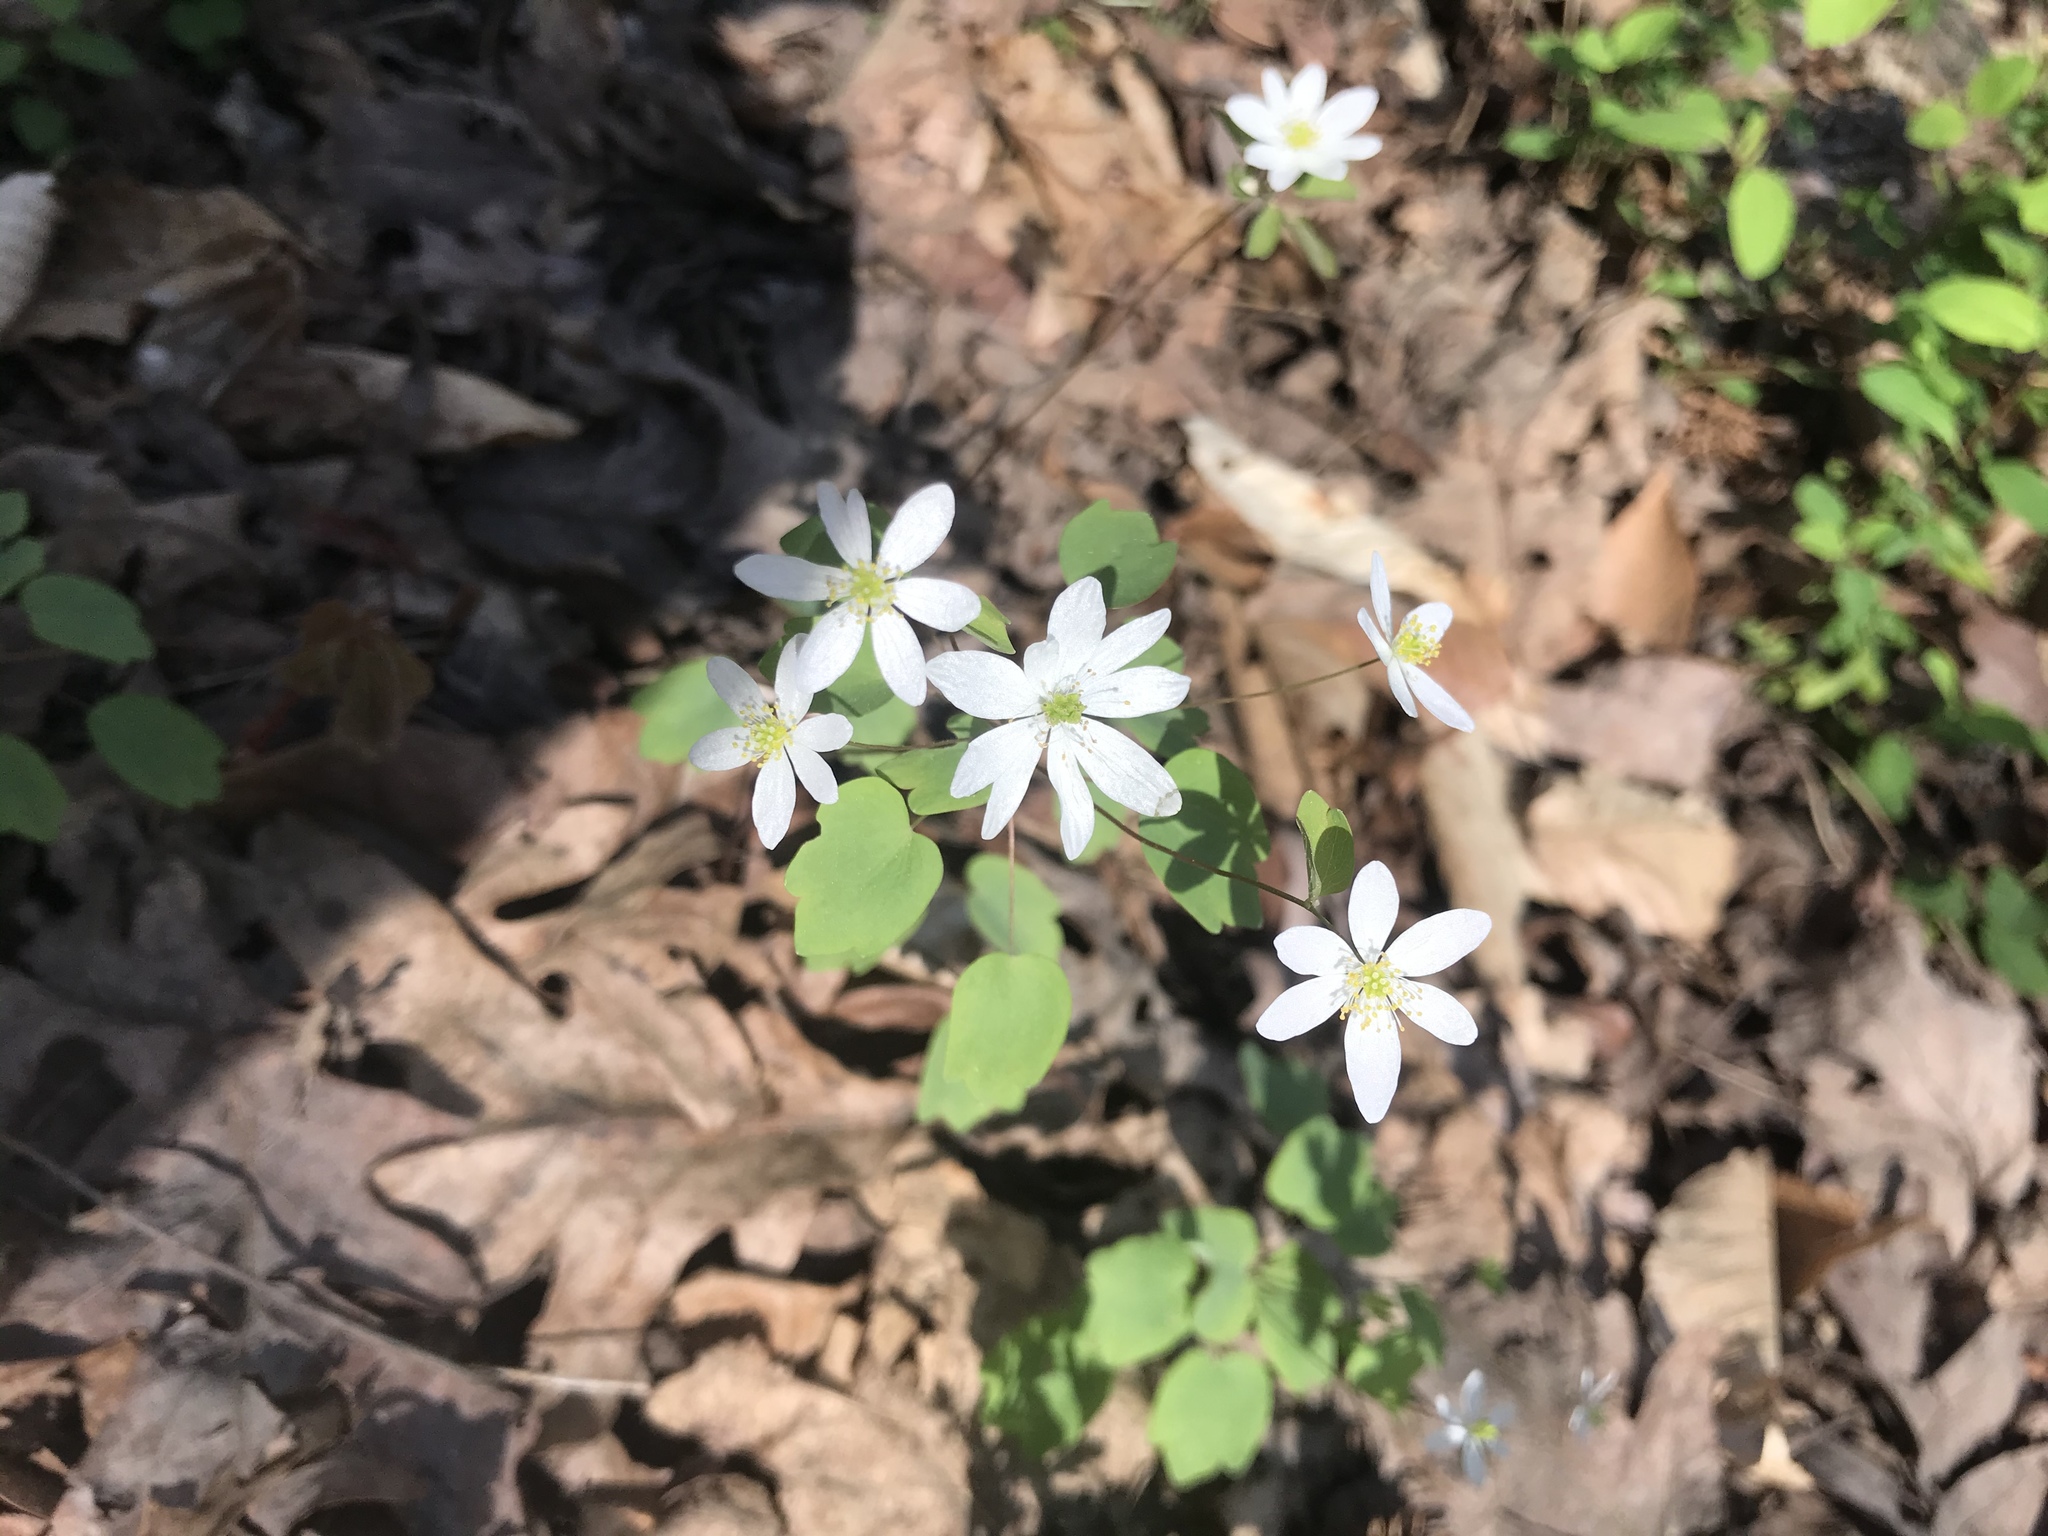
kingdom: Plantae
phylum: Tracheophyta
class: Magnoliopsida
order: Ranunculales
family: Ranunculaceae
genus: Thalictrum
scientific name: Thalictrum thalictroides
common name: Rue-anemone
